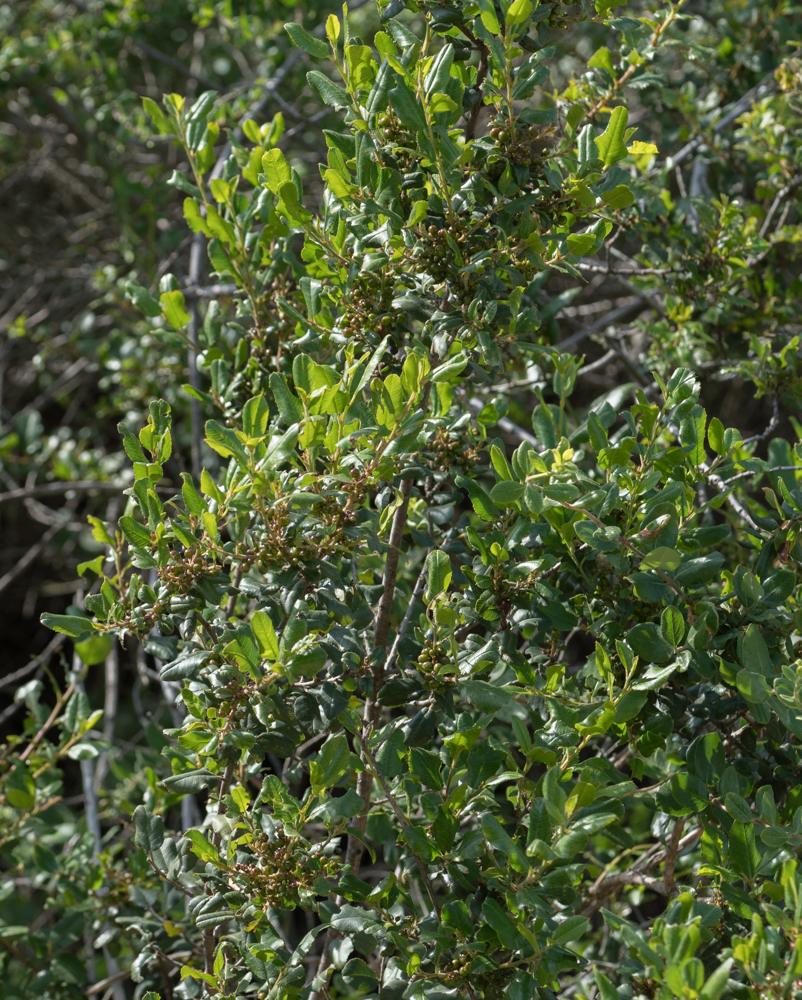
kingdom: Plantae
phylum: Tracheophyta
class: Magnoliopsida
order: Rosales
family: Rhamnaceae
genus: Endotropis
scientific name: Endotropis crocea
